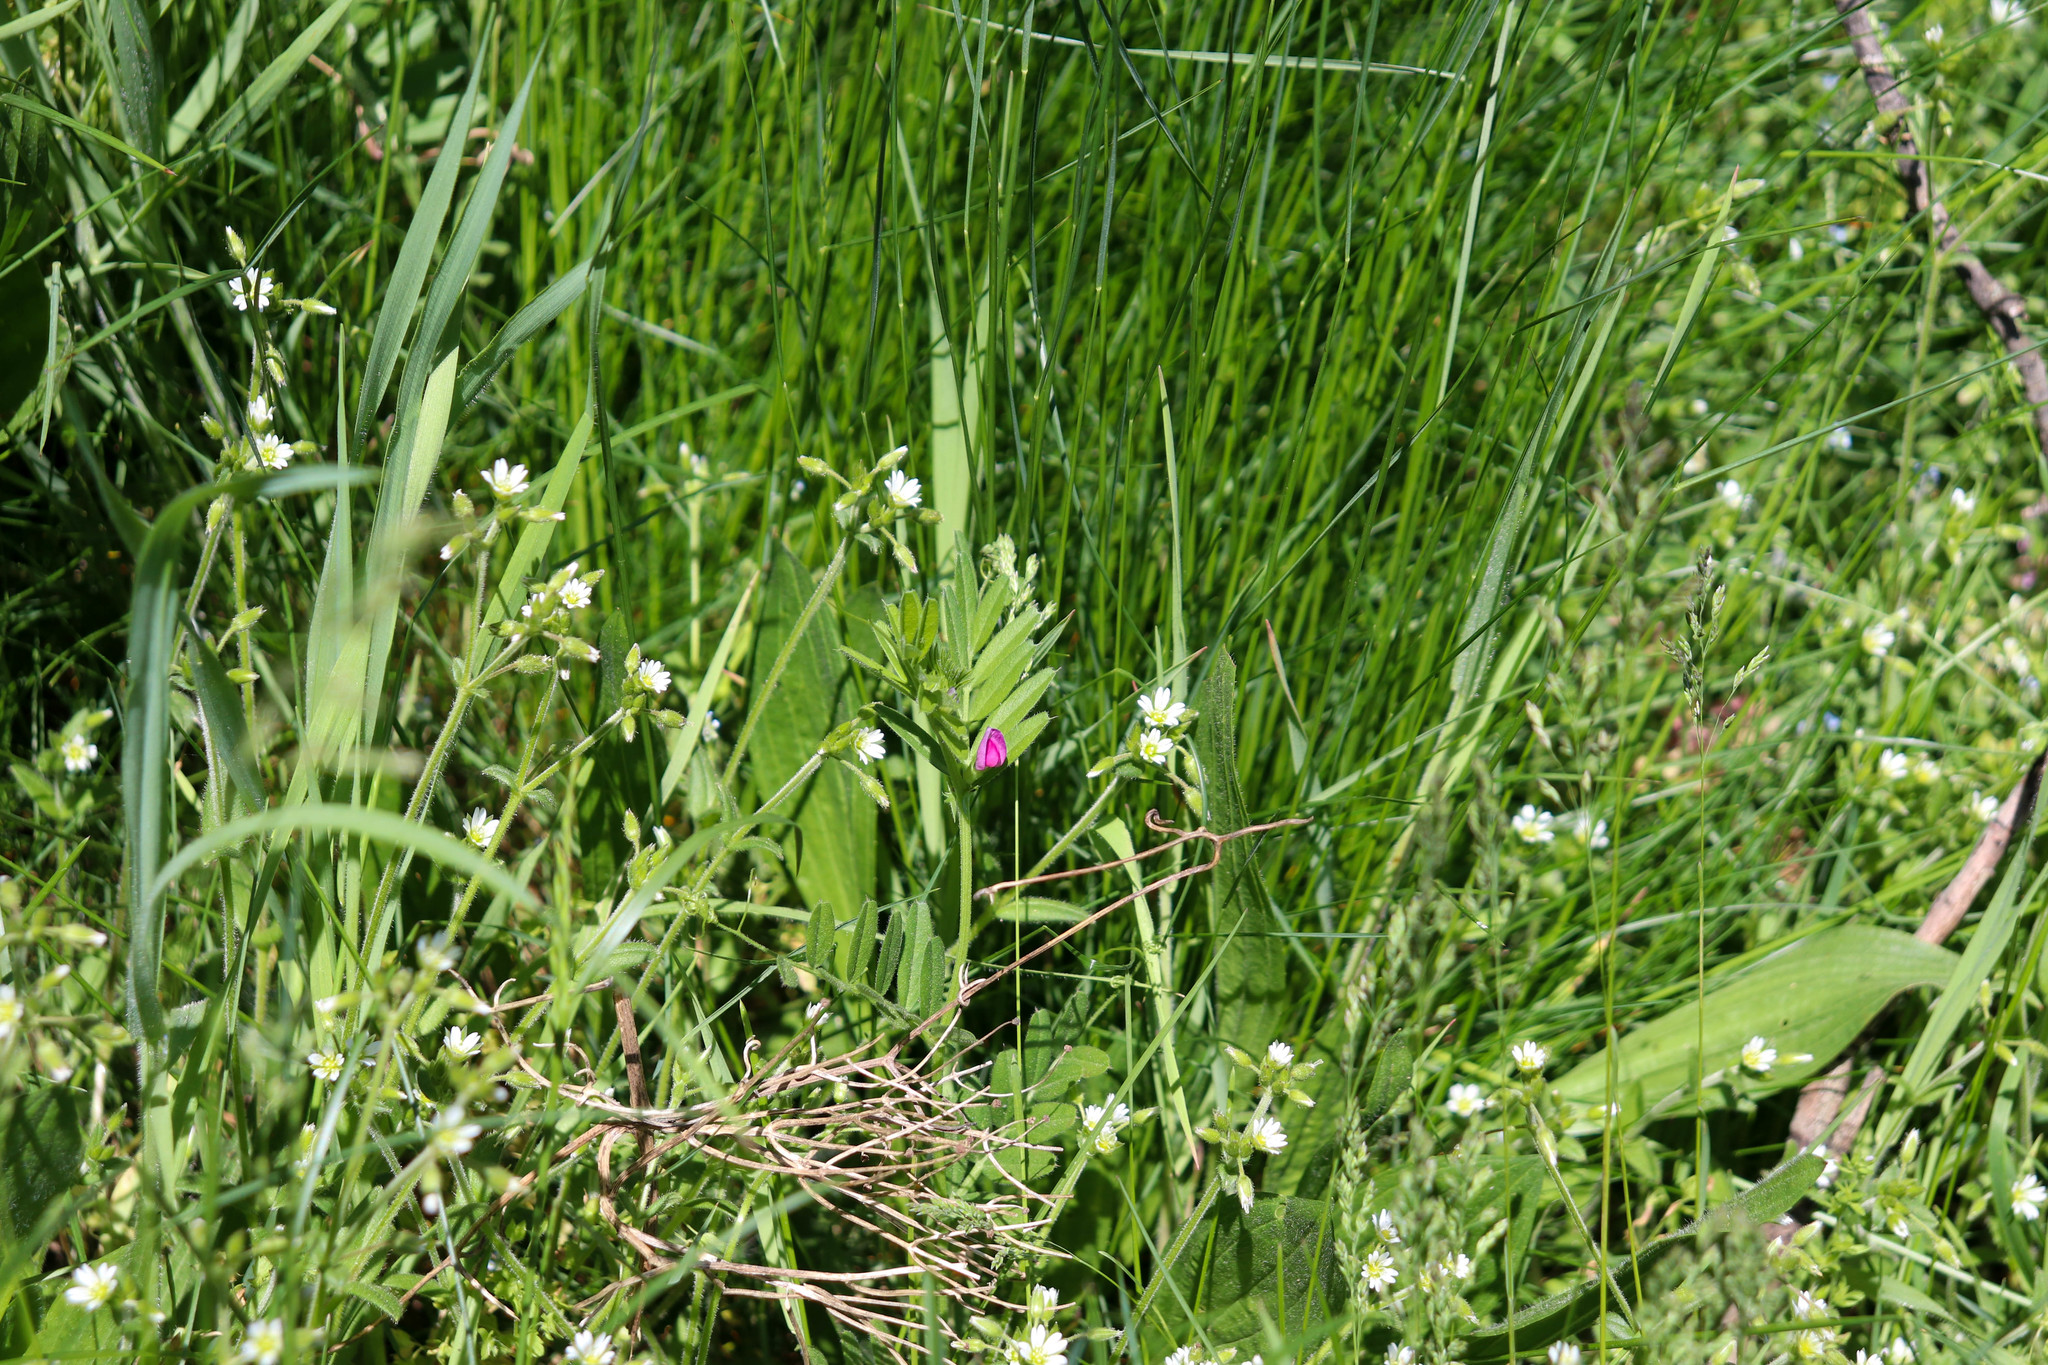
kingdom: Plantae
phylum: Tracheophyta
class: Magnoliopsida
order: Fabales
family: Fabaceae
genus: Vicia
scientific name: Vicia sativa
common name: Garden vetch
